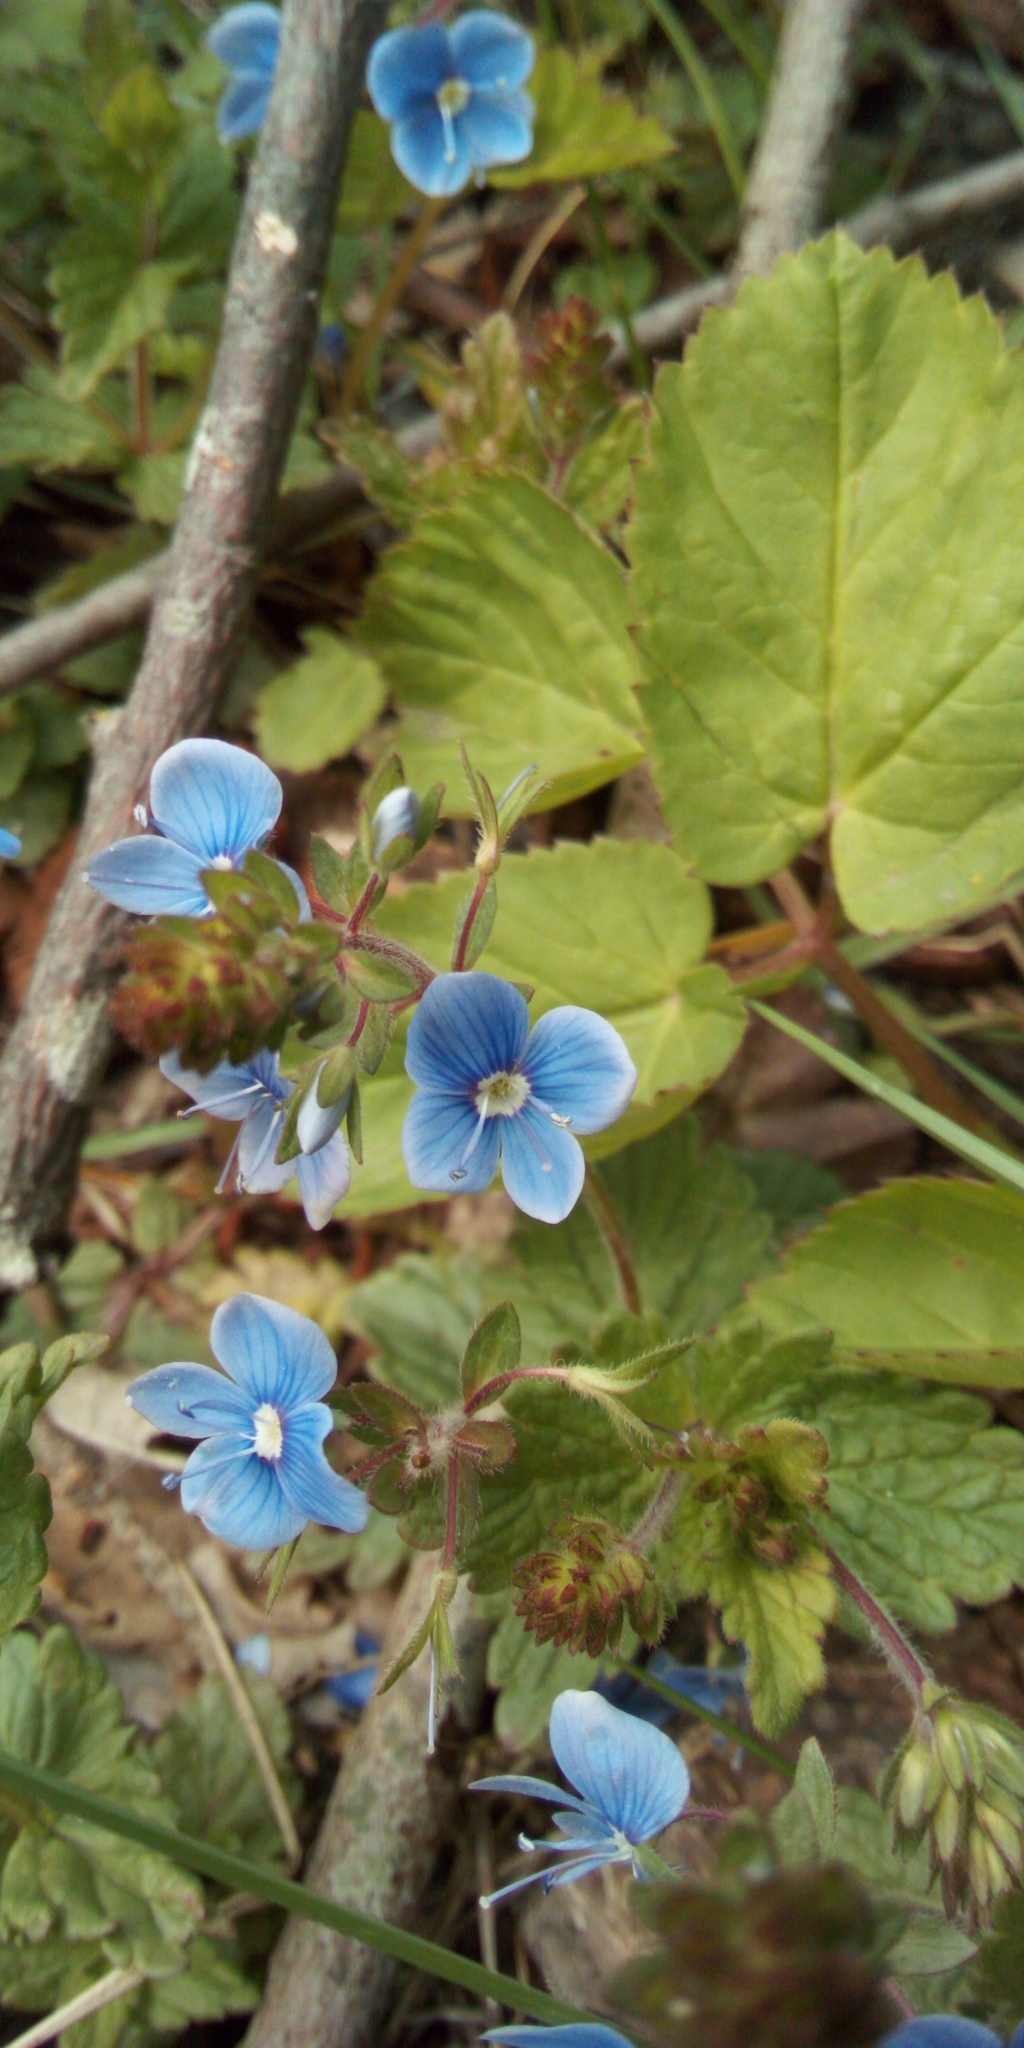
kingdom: Plantae
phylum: Tracheophyta
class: Magnoliopsida
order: Lamiales
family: Plantaginaceae
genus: Veronica
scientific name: Veronica chamaedrys
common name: Germander speedwell
